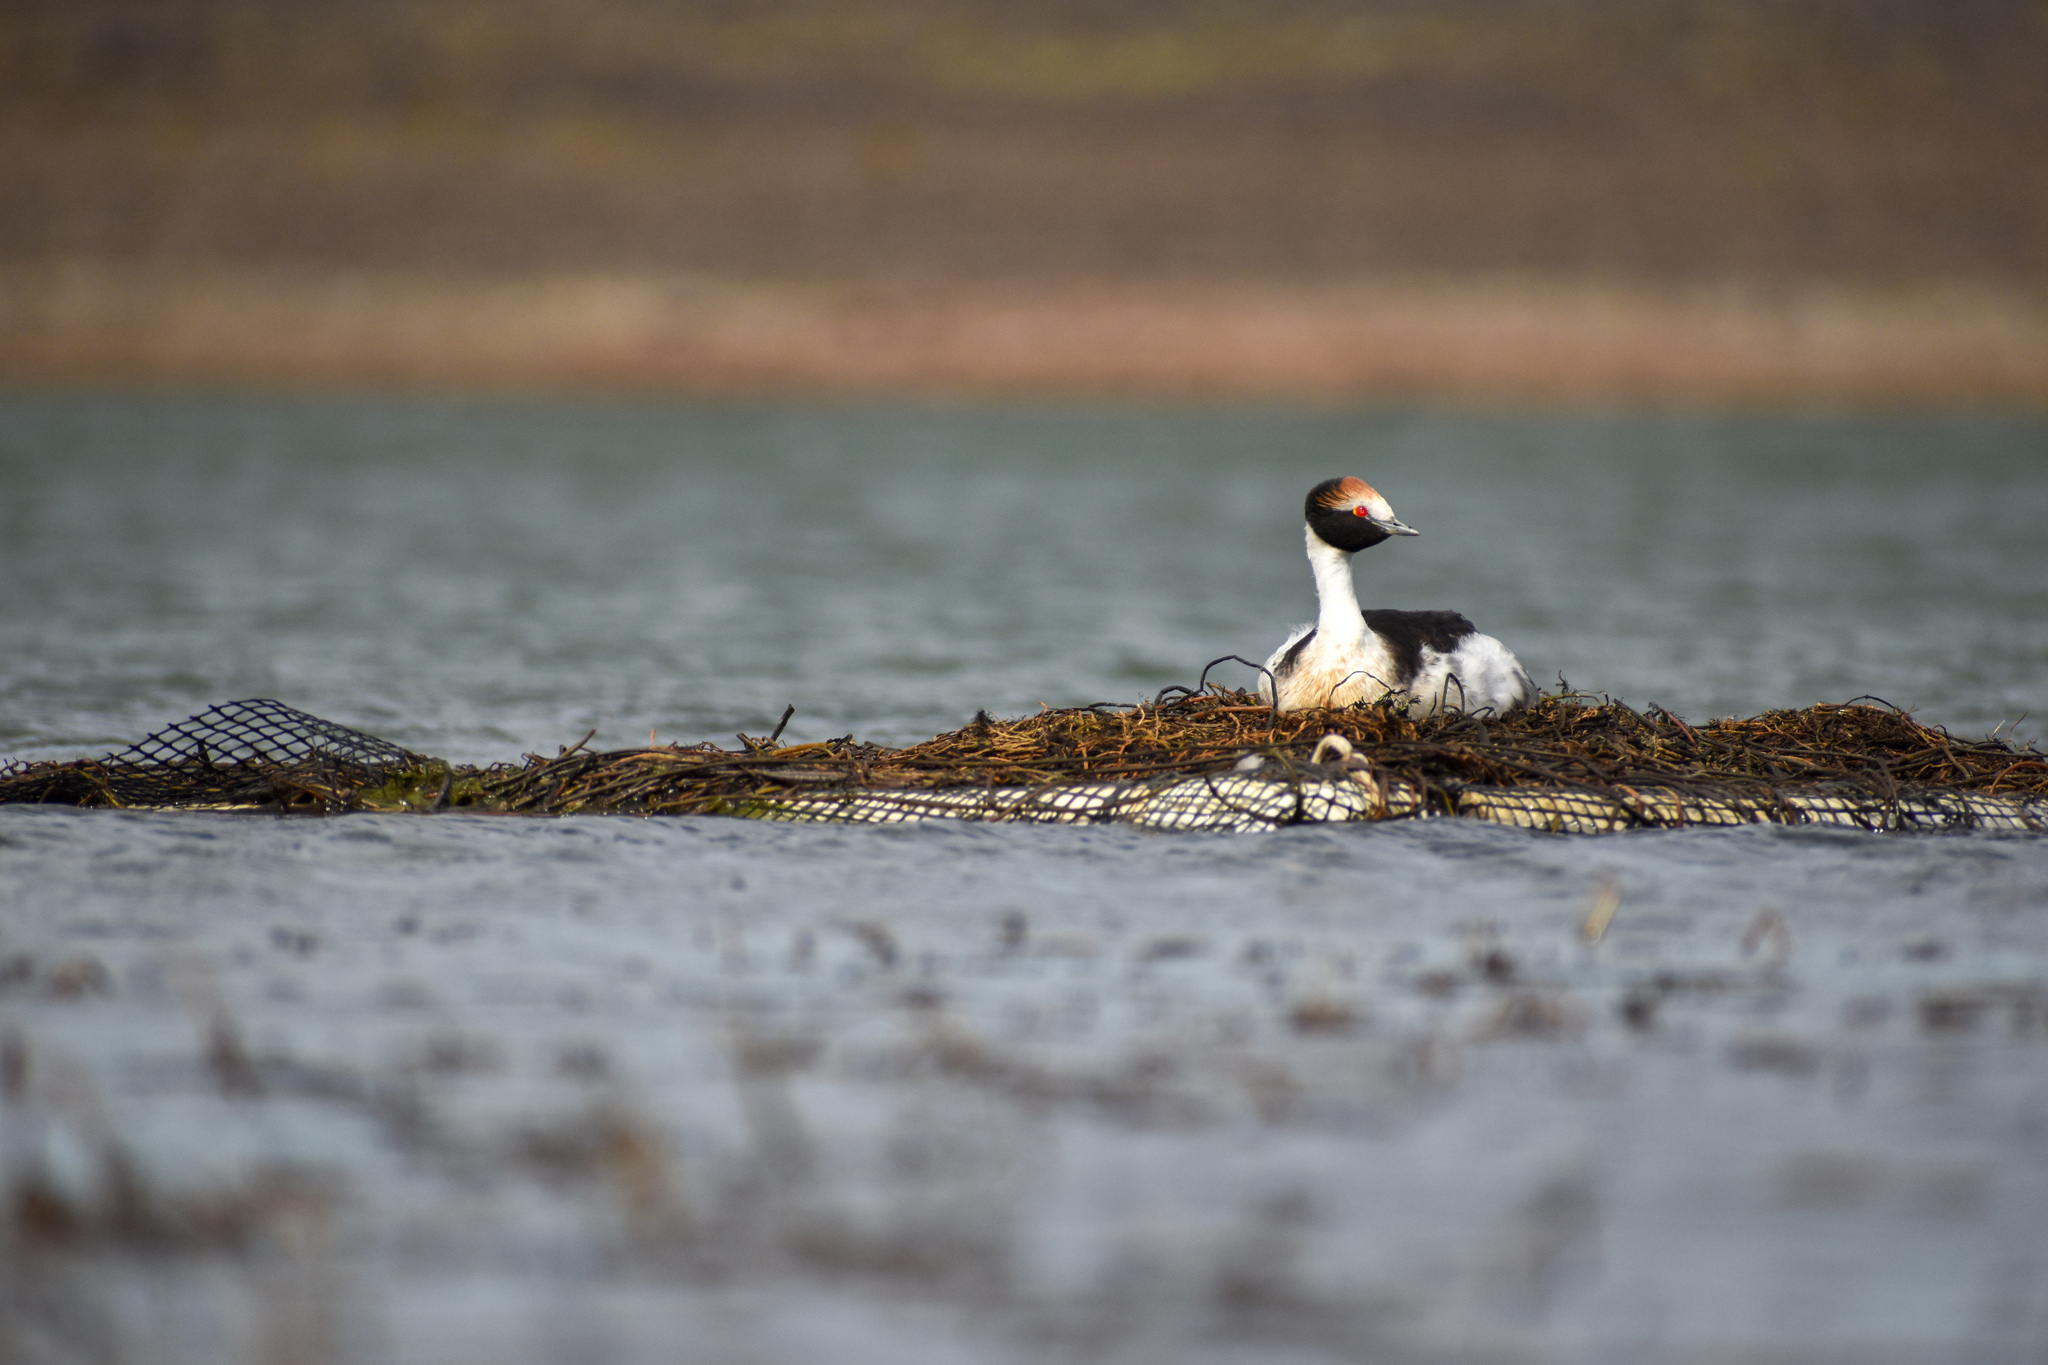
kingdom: Animalia
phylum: Chordata
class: Aves
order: Podicipediformes
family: Podicipedidae
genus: Podiceps
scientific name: Podiceps gallardoi
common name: Hooded grebe
